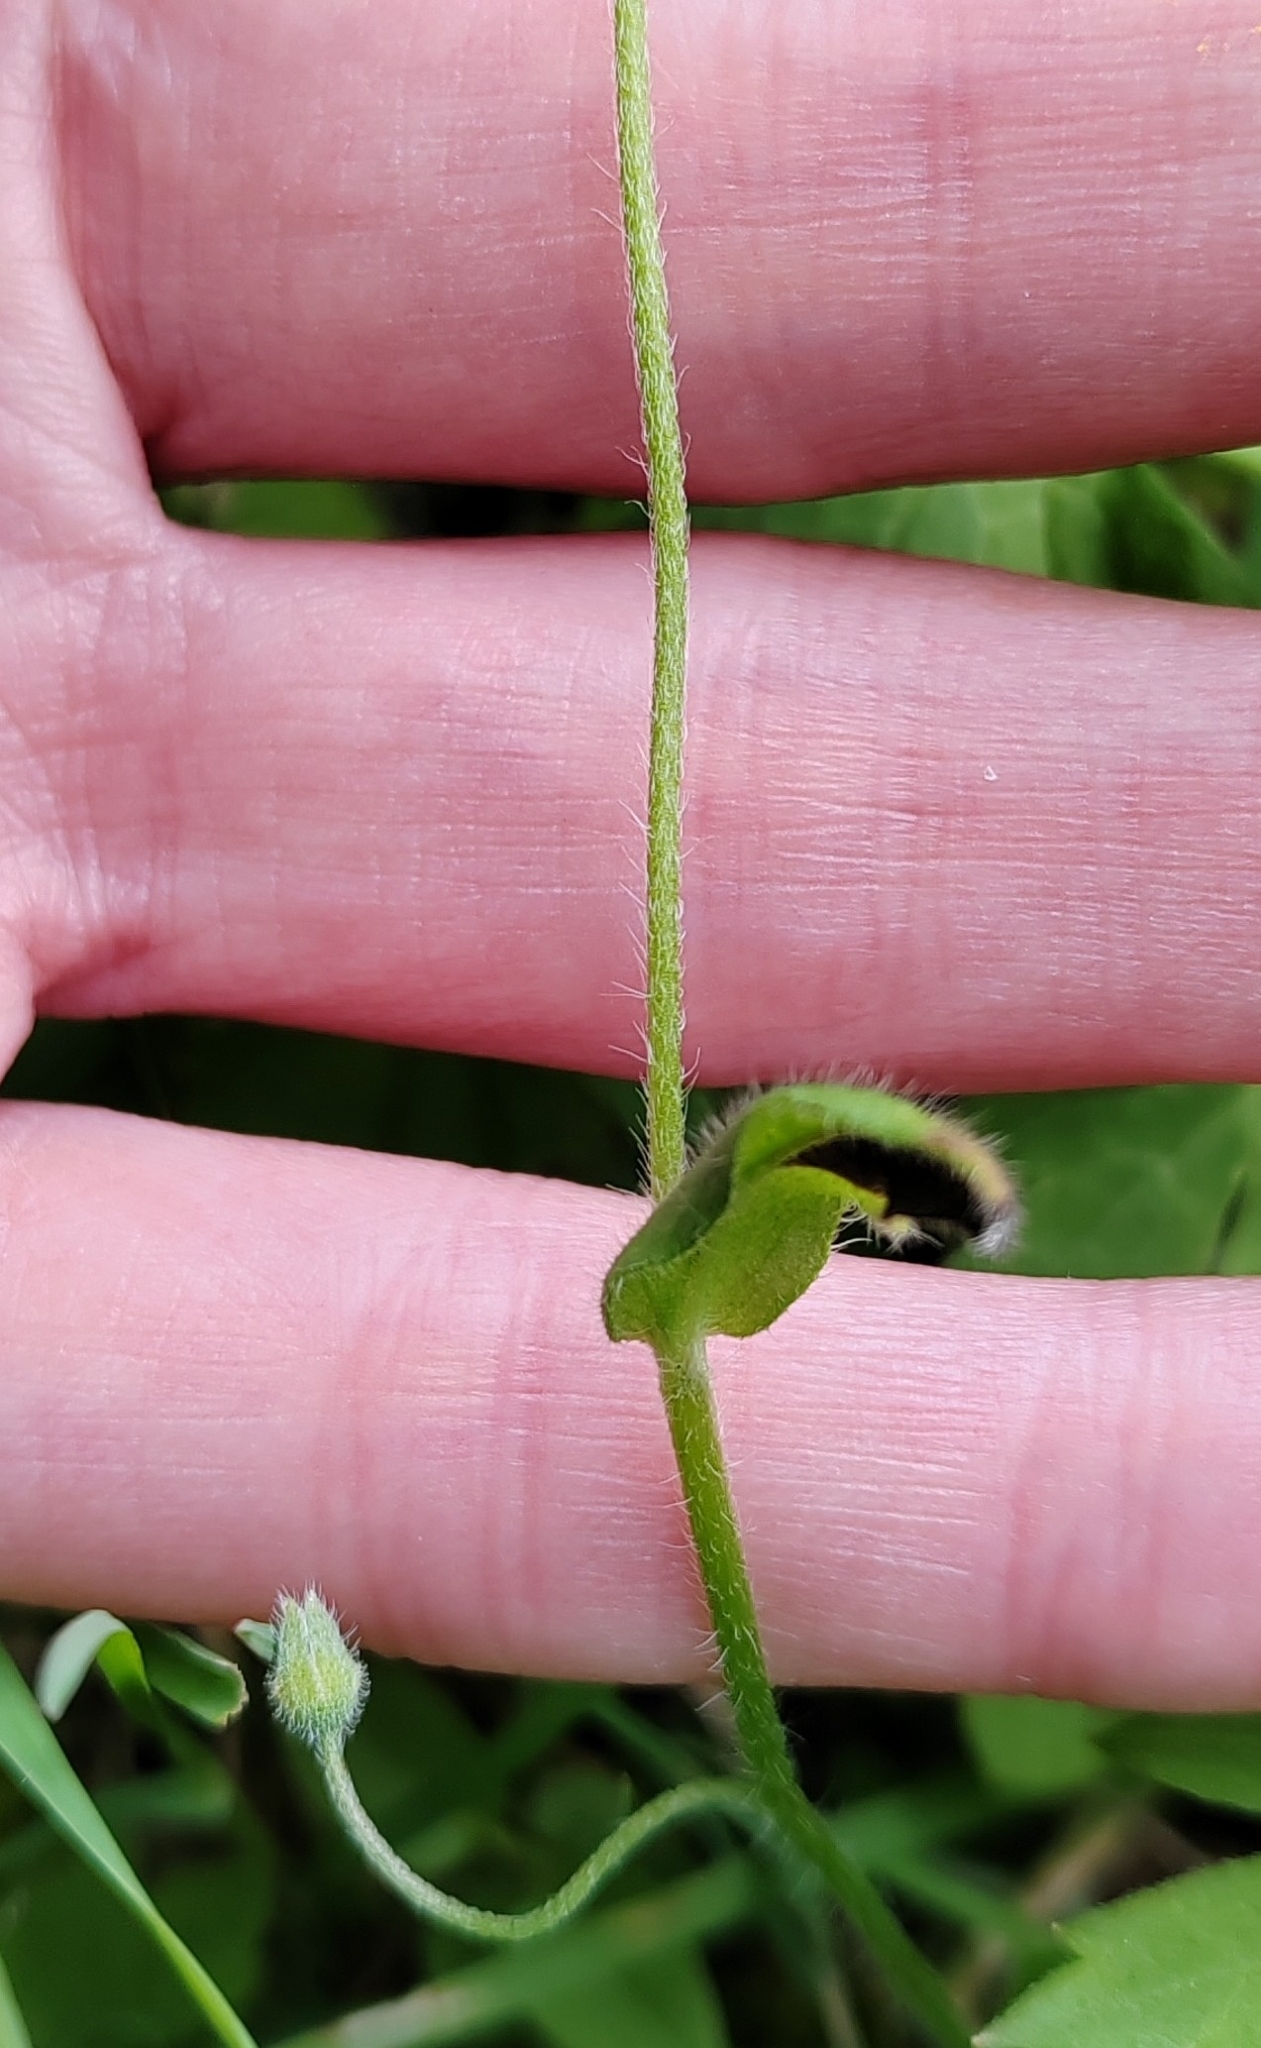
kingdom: Plantae
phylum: Tracheophyta
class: Magnoliopsida
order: Boraginales
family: Boraginaceae
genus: Myosotis
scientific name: Myosotis arvensis
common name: Field forget-me-not
